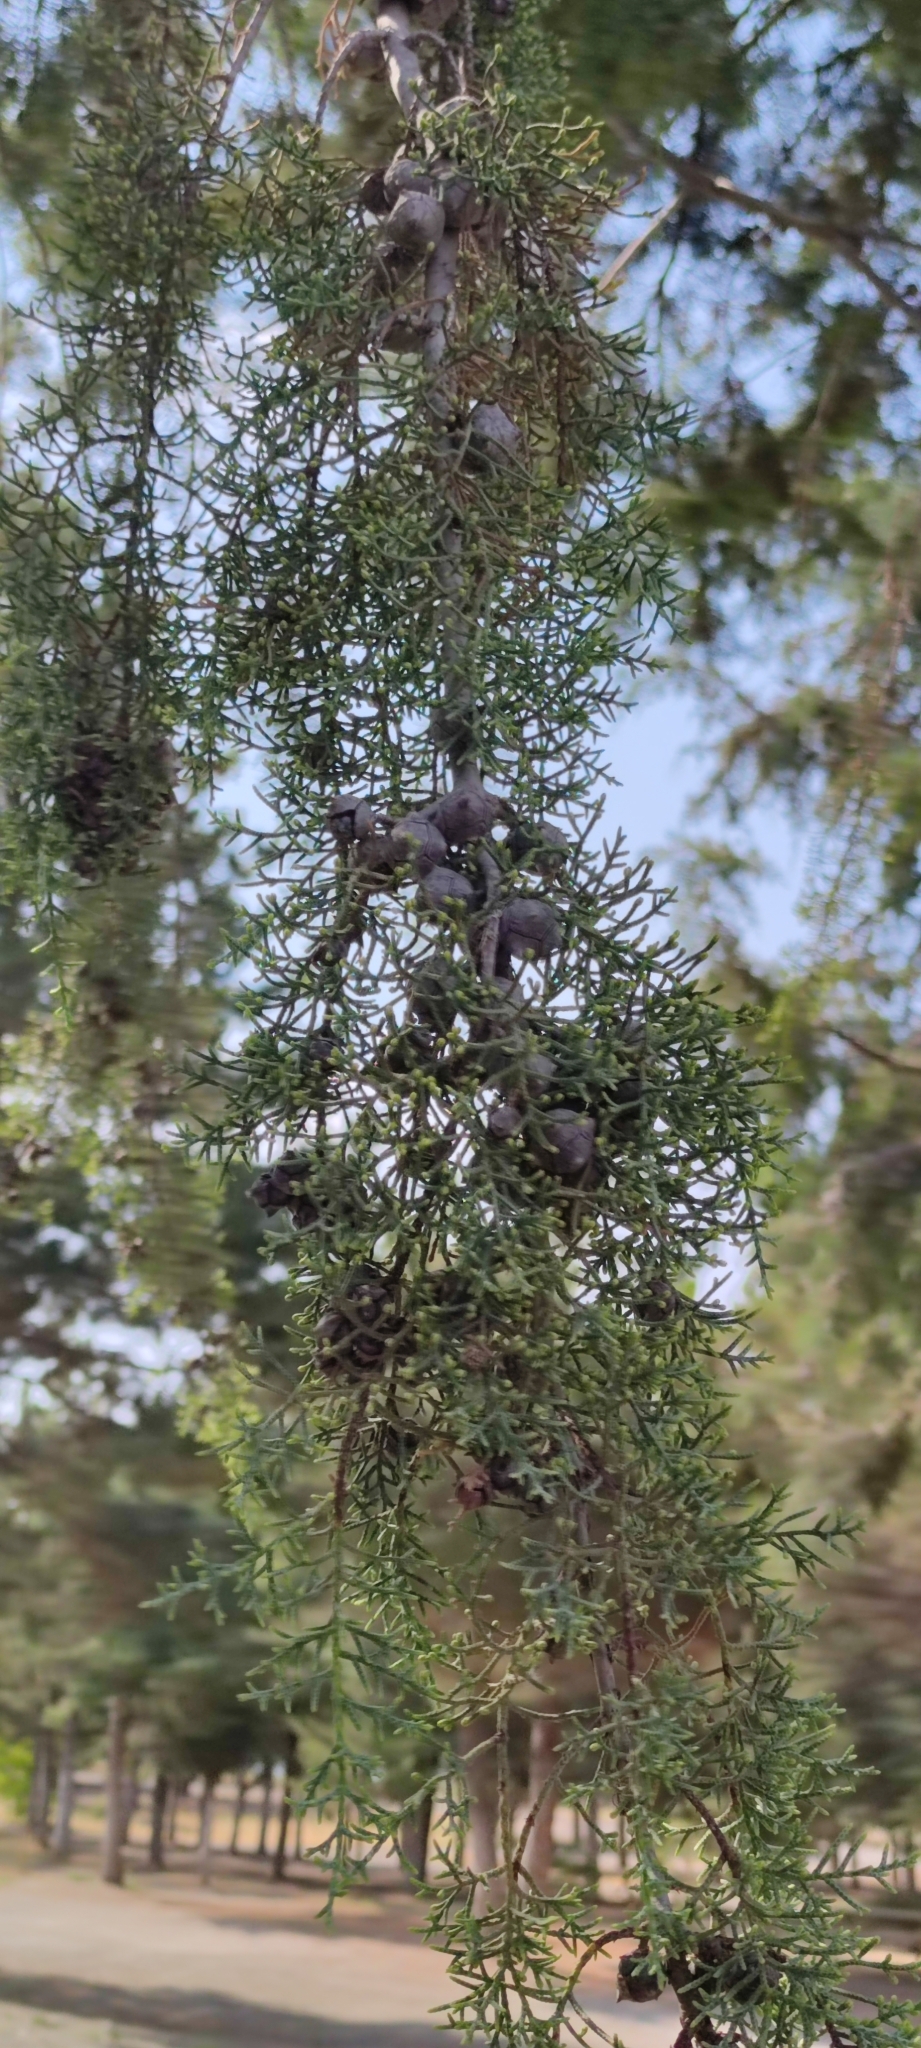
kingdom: Plantae
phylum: Tracheophyta
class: Pinopsida
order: Pinales
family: Cupressaceae
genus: Cupressus
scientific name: Cupressus arizonica
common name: Arizona cypress
